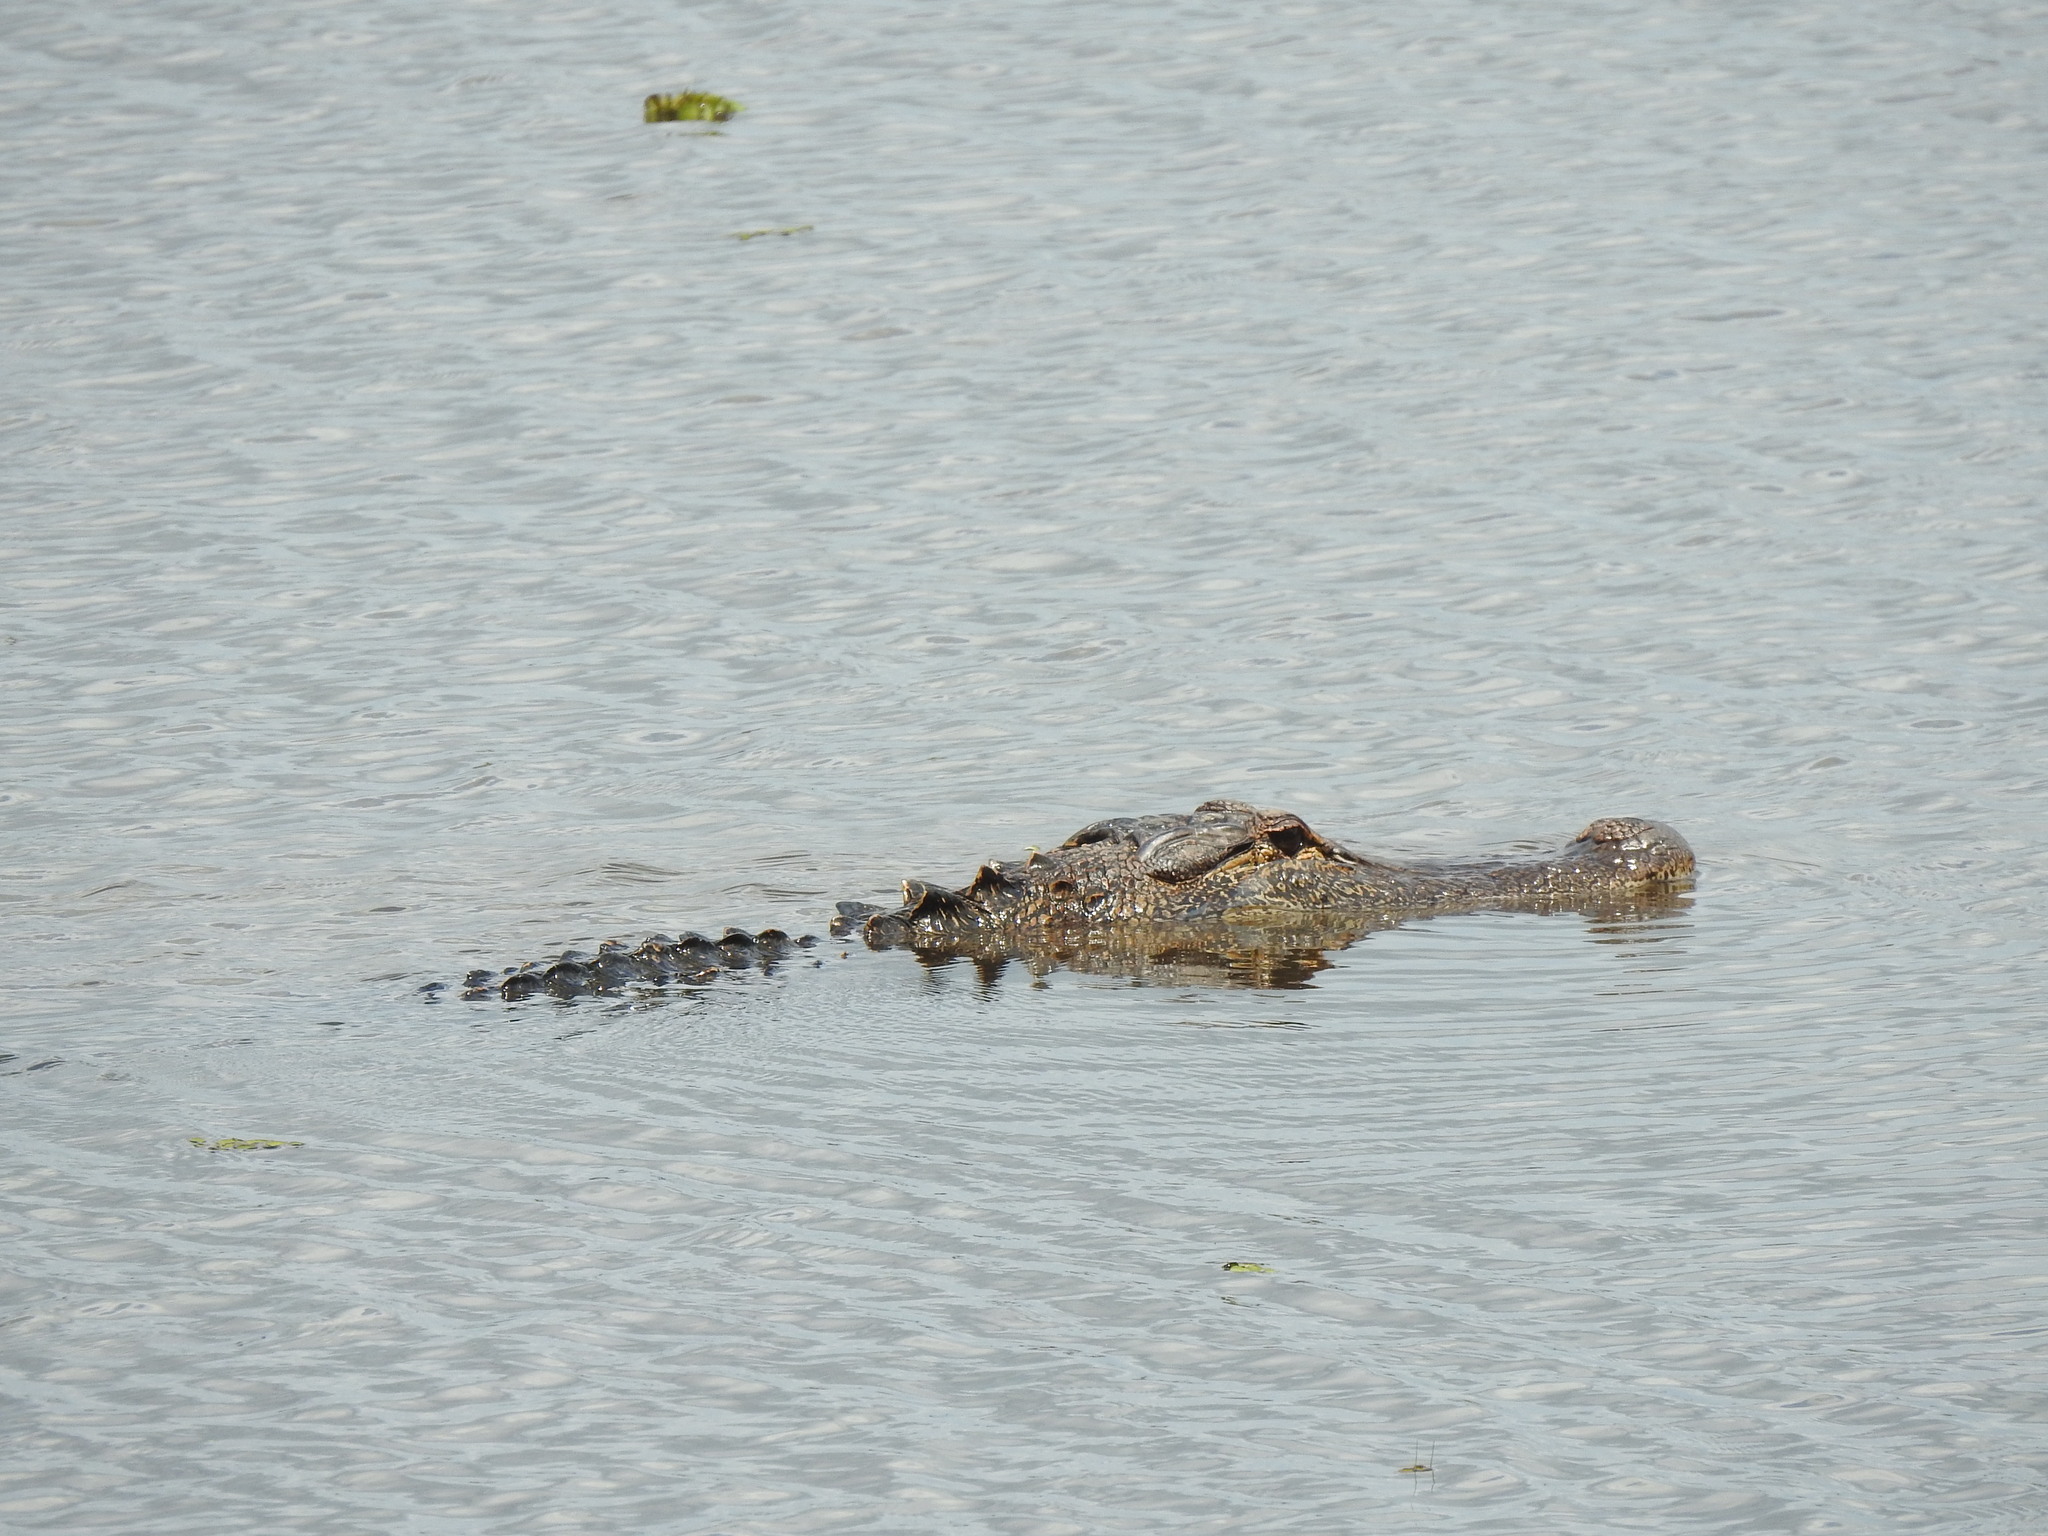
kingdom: Animalia
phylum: Chordata
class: Crocodylia
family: Alligatoridae
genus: Alligator
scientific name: Alligator mississippiensis
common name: American alligator
